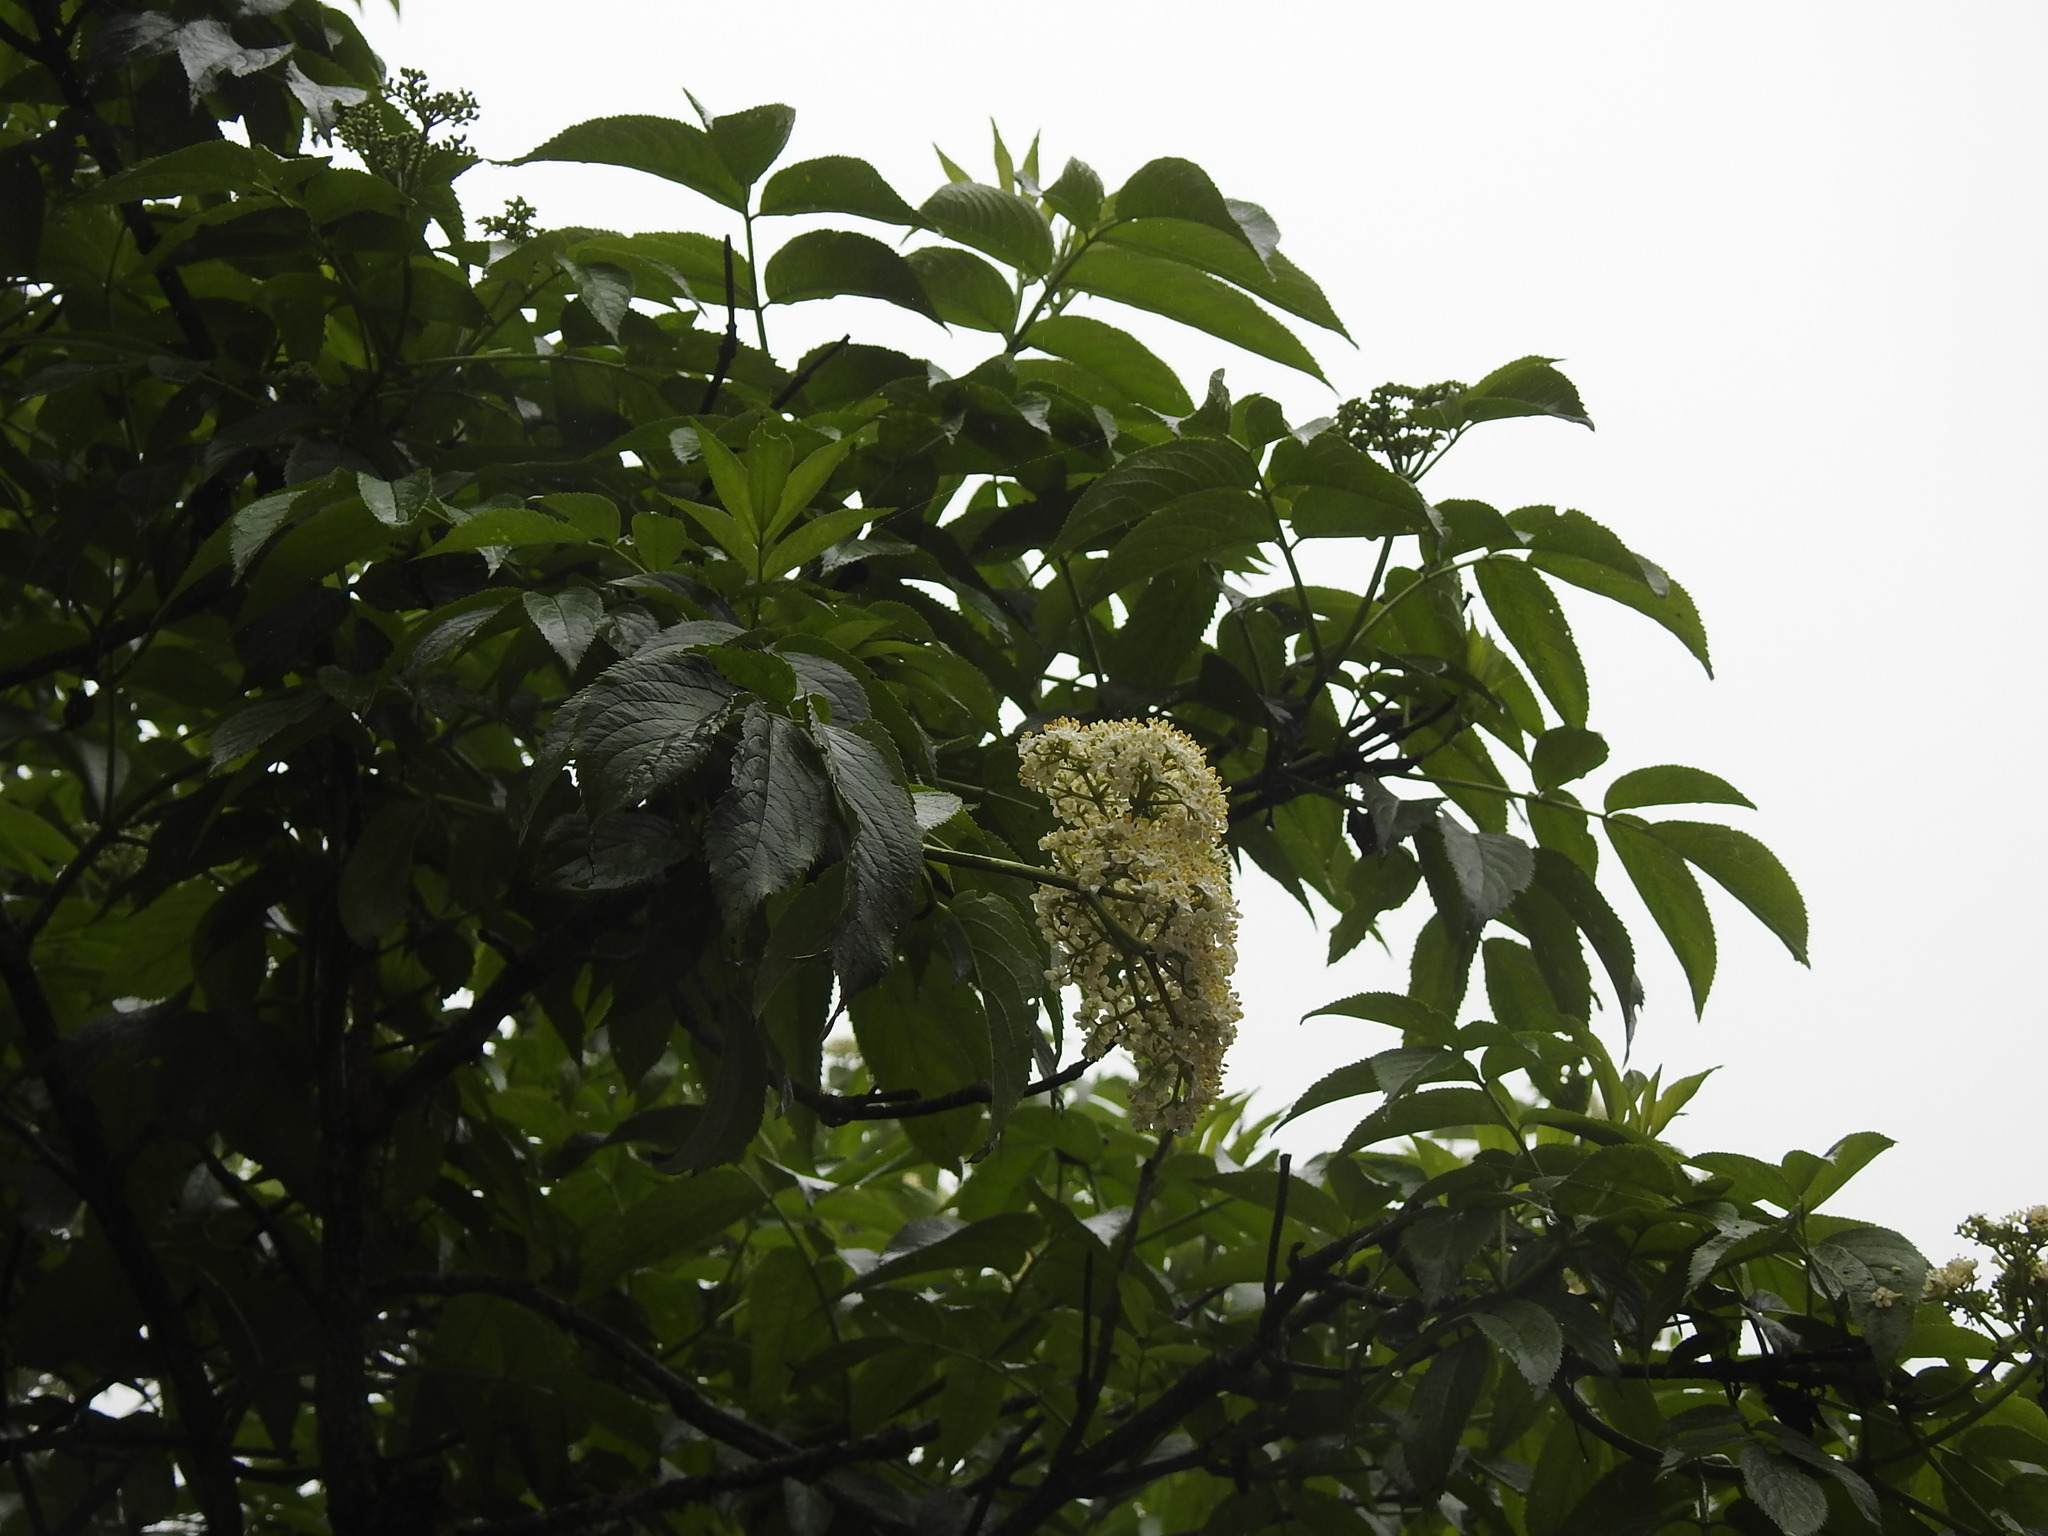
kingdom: Plantae
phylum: Tracheophyta
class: Magnoliopsida
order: Dipsacales
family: Viburnaceae
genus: Sambucus
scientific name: Sambucus peruviana
